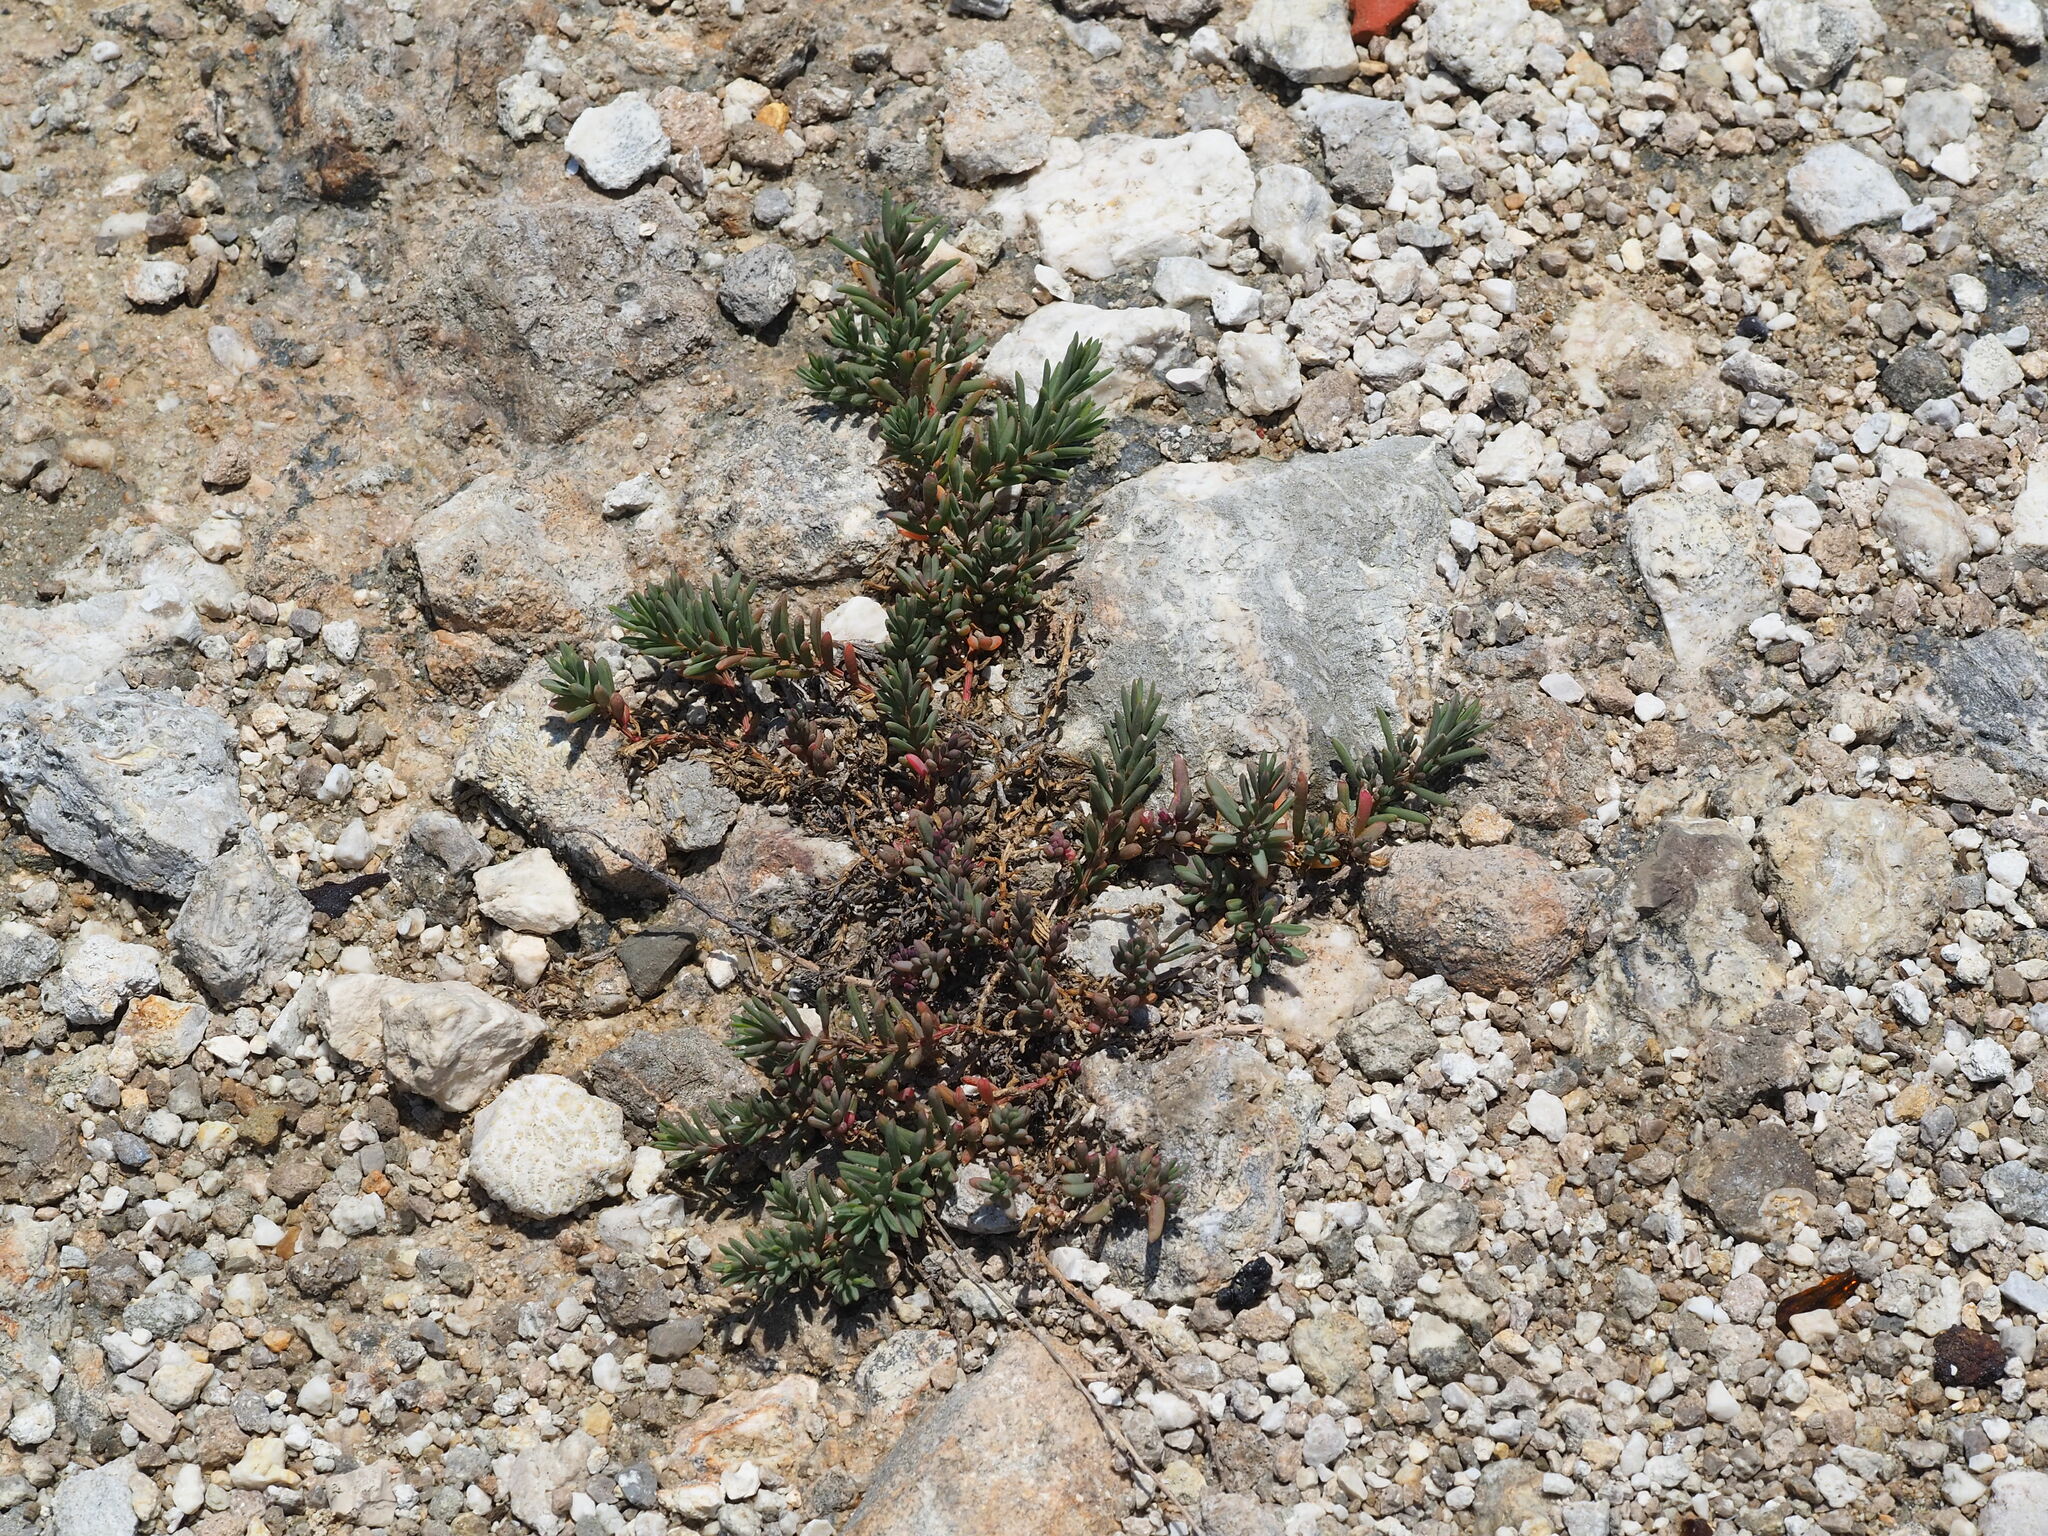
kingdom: Plantae
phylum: Tracheophyta
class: Magnoliopsida
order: Caryophyllales
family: Amaranthaceae
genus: Suaeda
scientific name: Suaeda maritima
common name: Annual sea-blite
